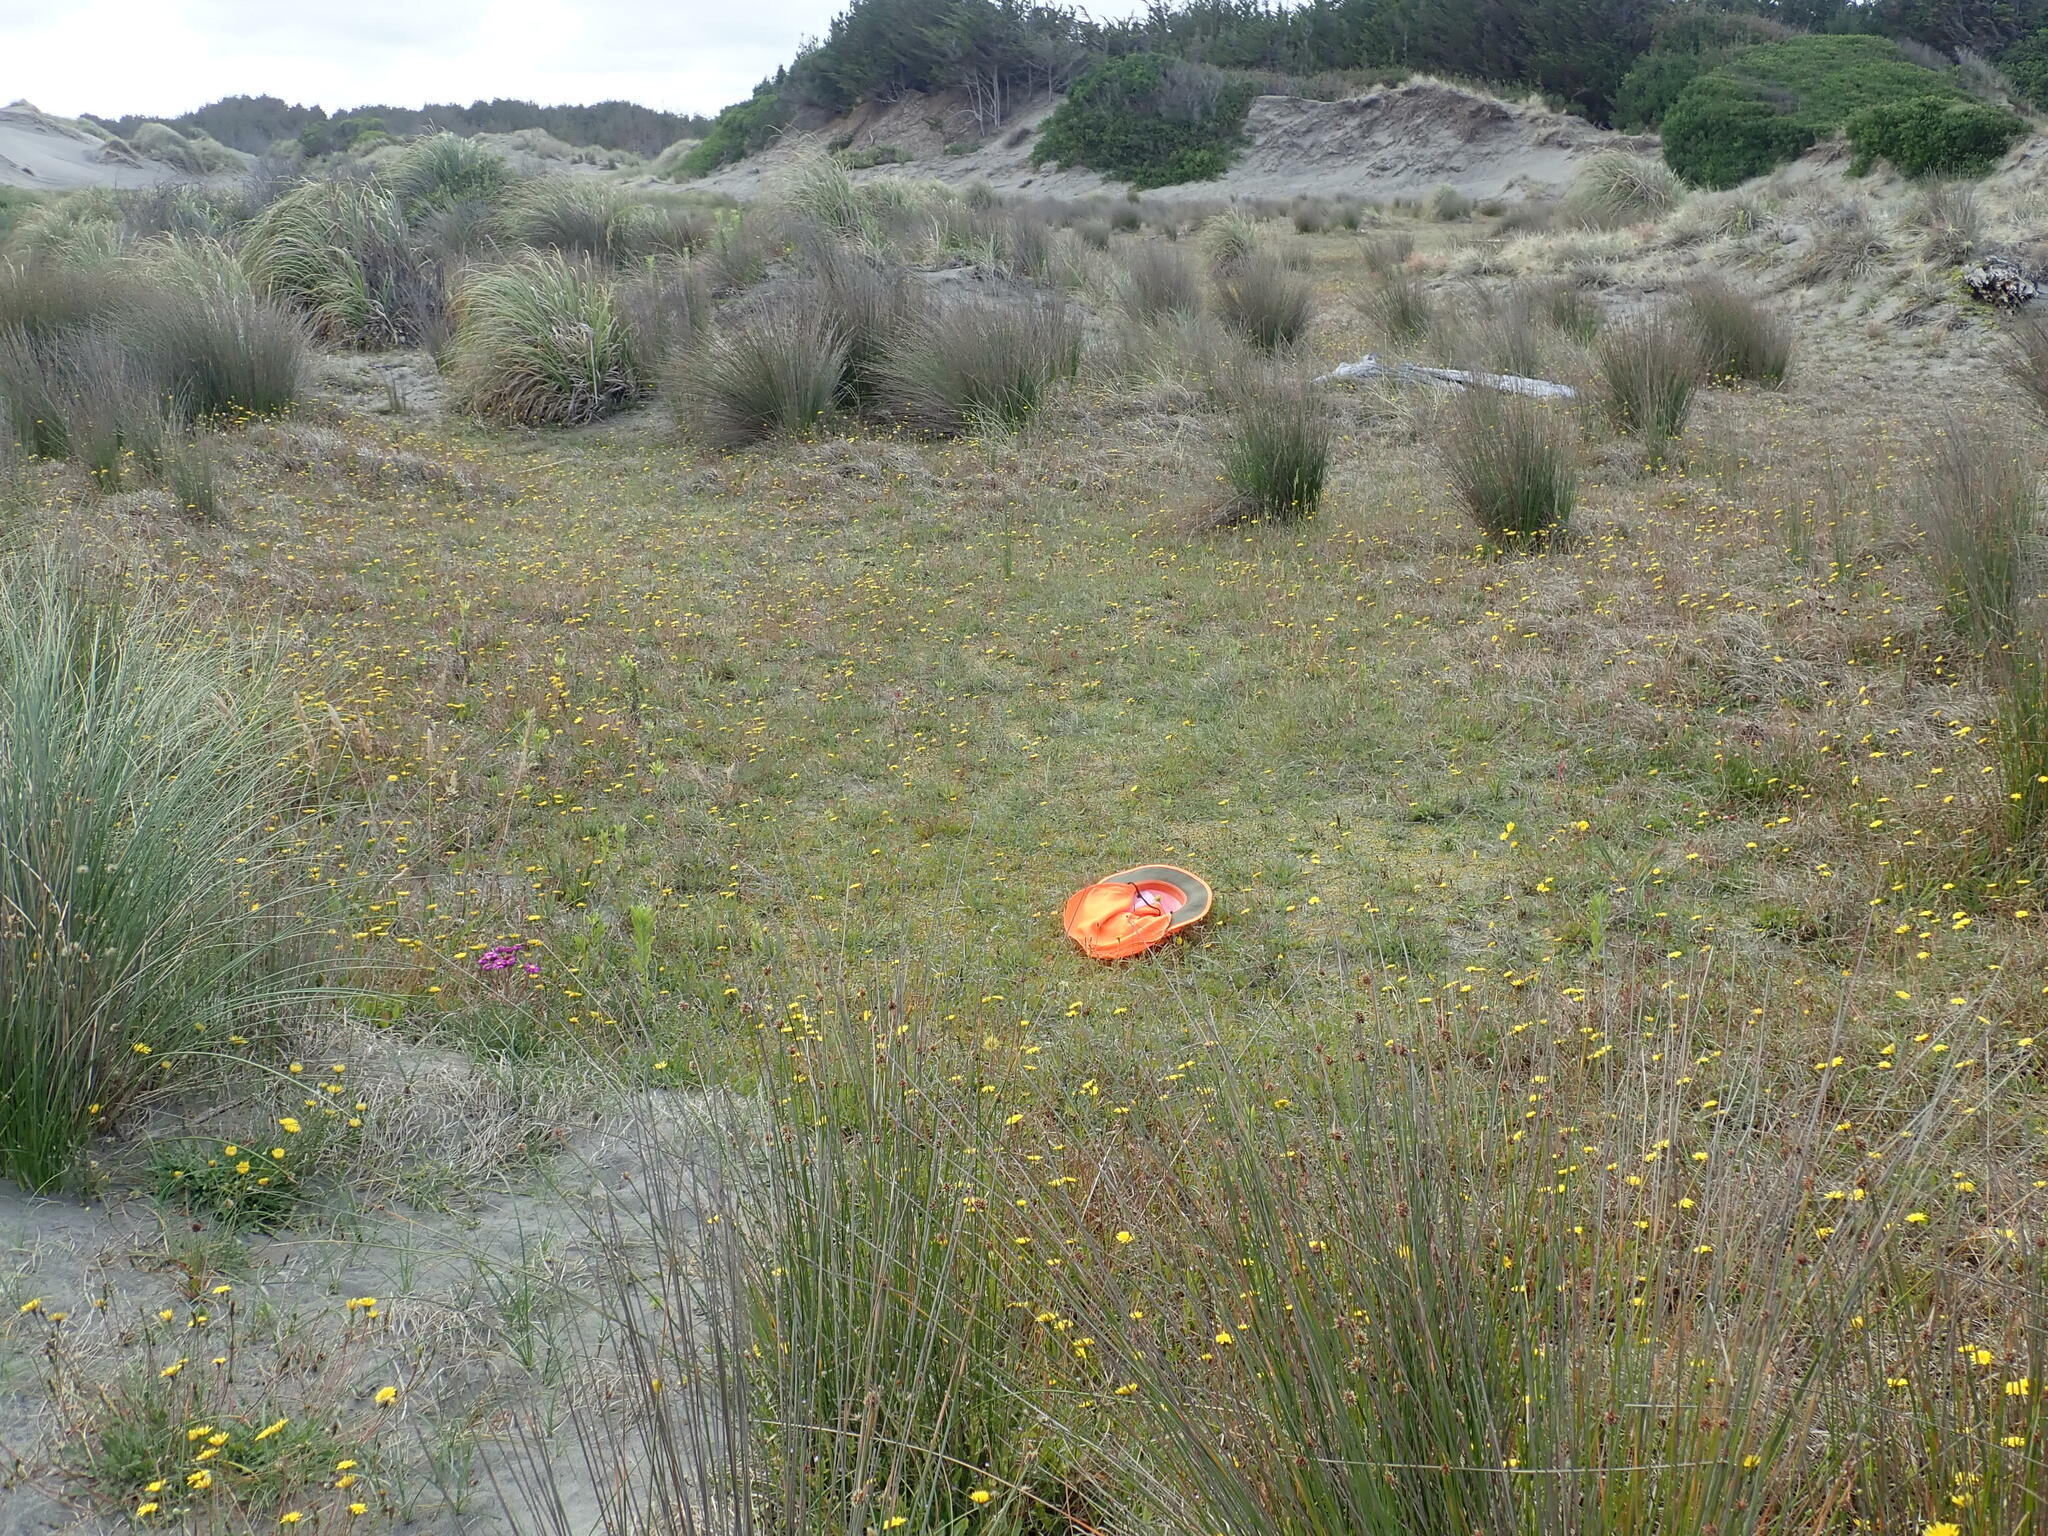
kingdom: Plantae
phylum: Tracheophyta
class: Magnoliopsida
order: Asterales
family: Campanulaceae
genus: Lobelia
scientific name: Lobelia anceps
